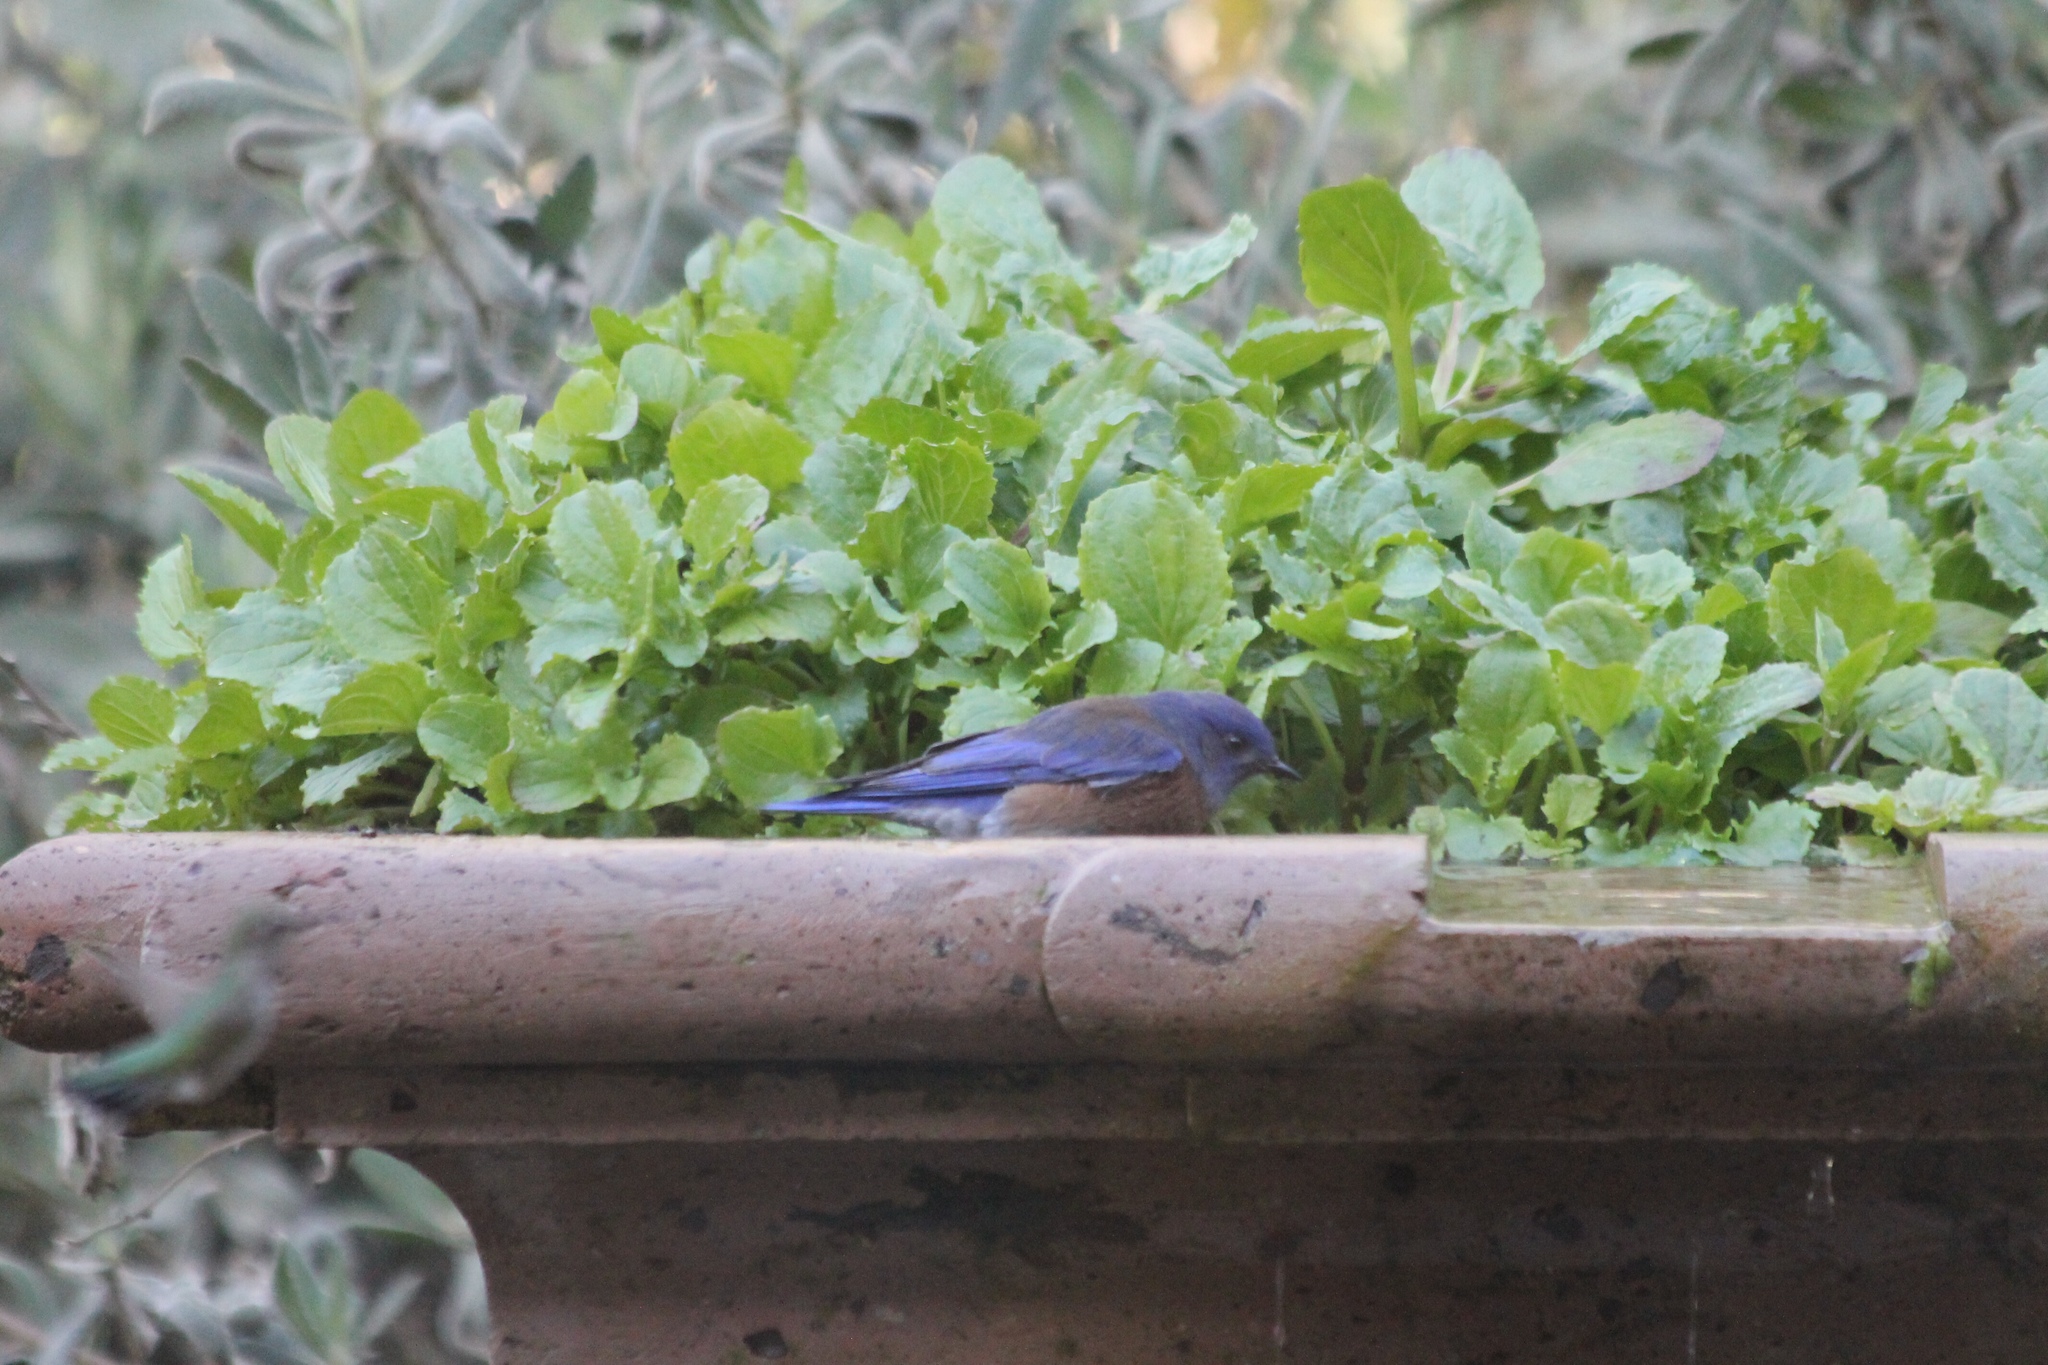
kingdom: Animalia
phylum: Chordata
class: Aves
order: Passeriformes
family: Turdidae
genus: Sialia
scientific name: Sialia mexicana
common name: Western bluebird
